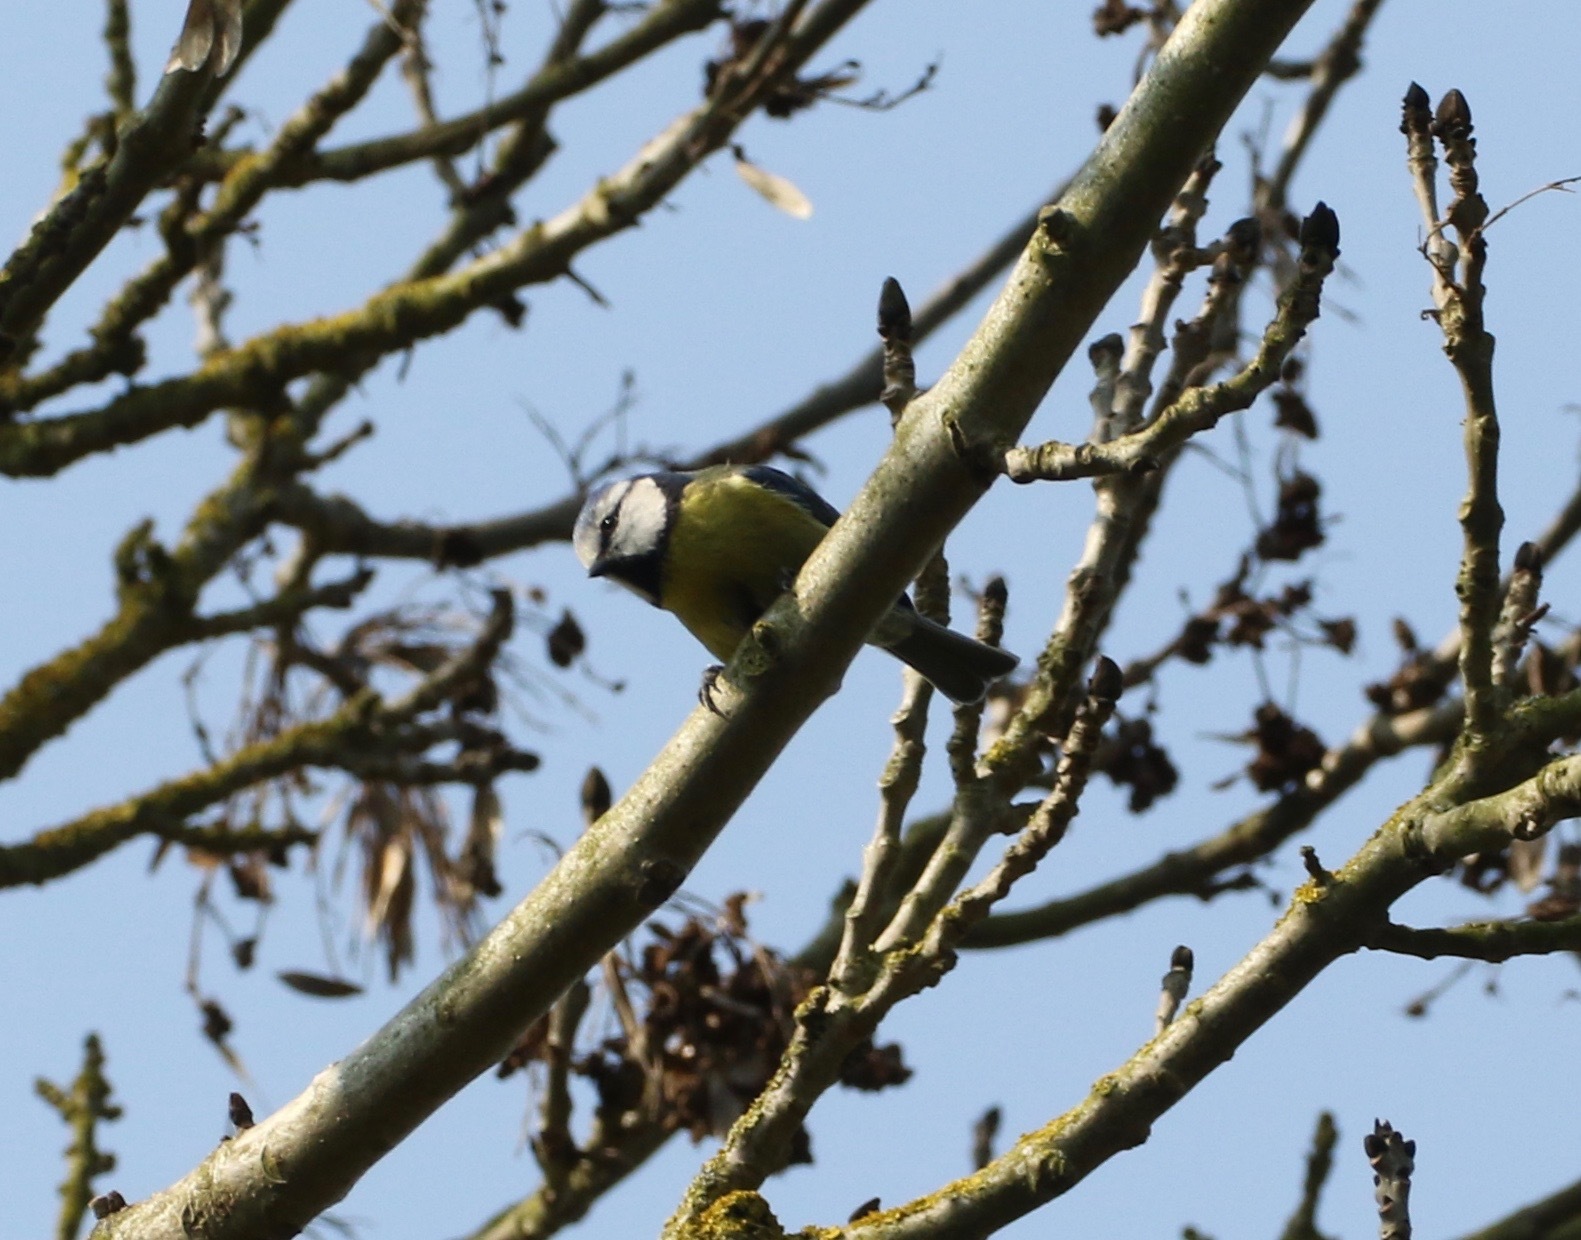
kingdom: Animalia
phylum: Chordata
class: Aves
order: Passeriformes
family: Paridae
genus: Cyanistes
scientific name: Cyanistes caeruleus
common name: Eurasian blue tit
